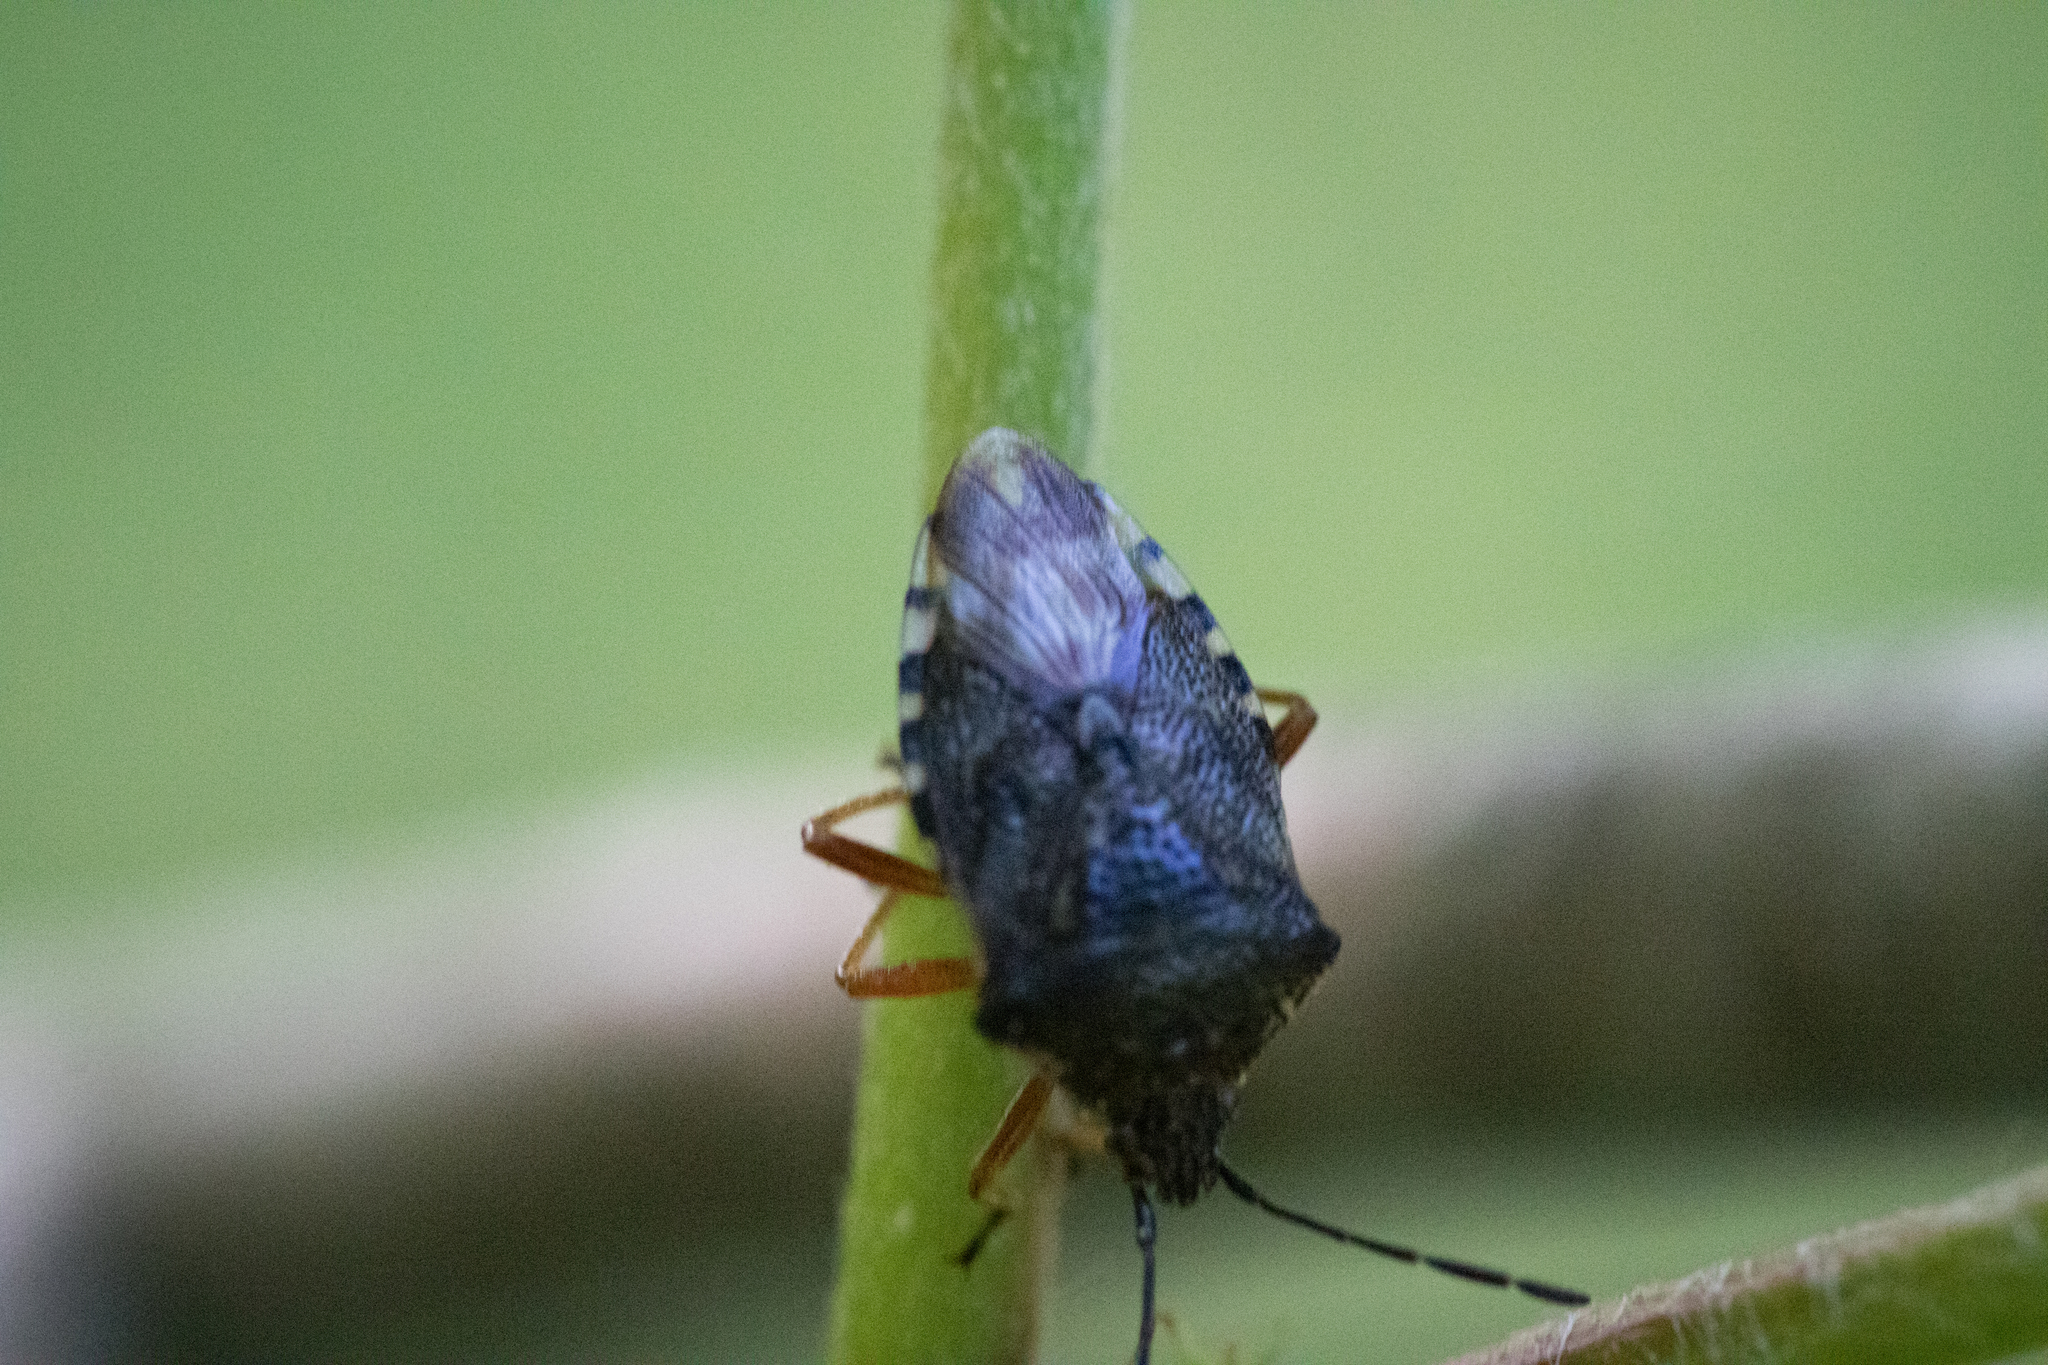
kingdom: Animalia
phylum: Arthropoda
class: Insecta
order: Hemiptera
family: Acanthosomatidae
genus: Elasmucha
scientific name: Elasmucha fieberi
